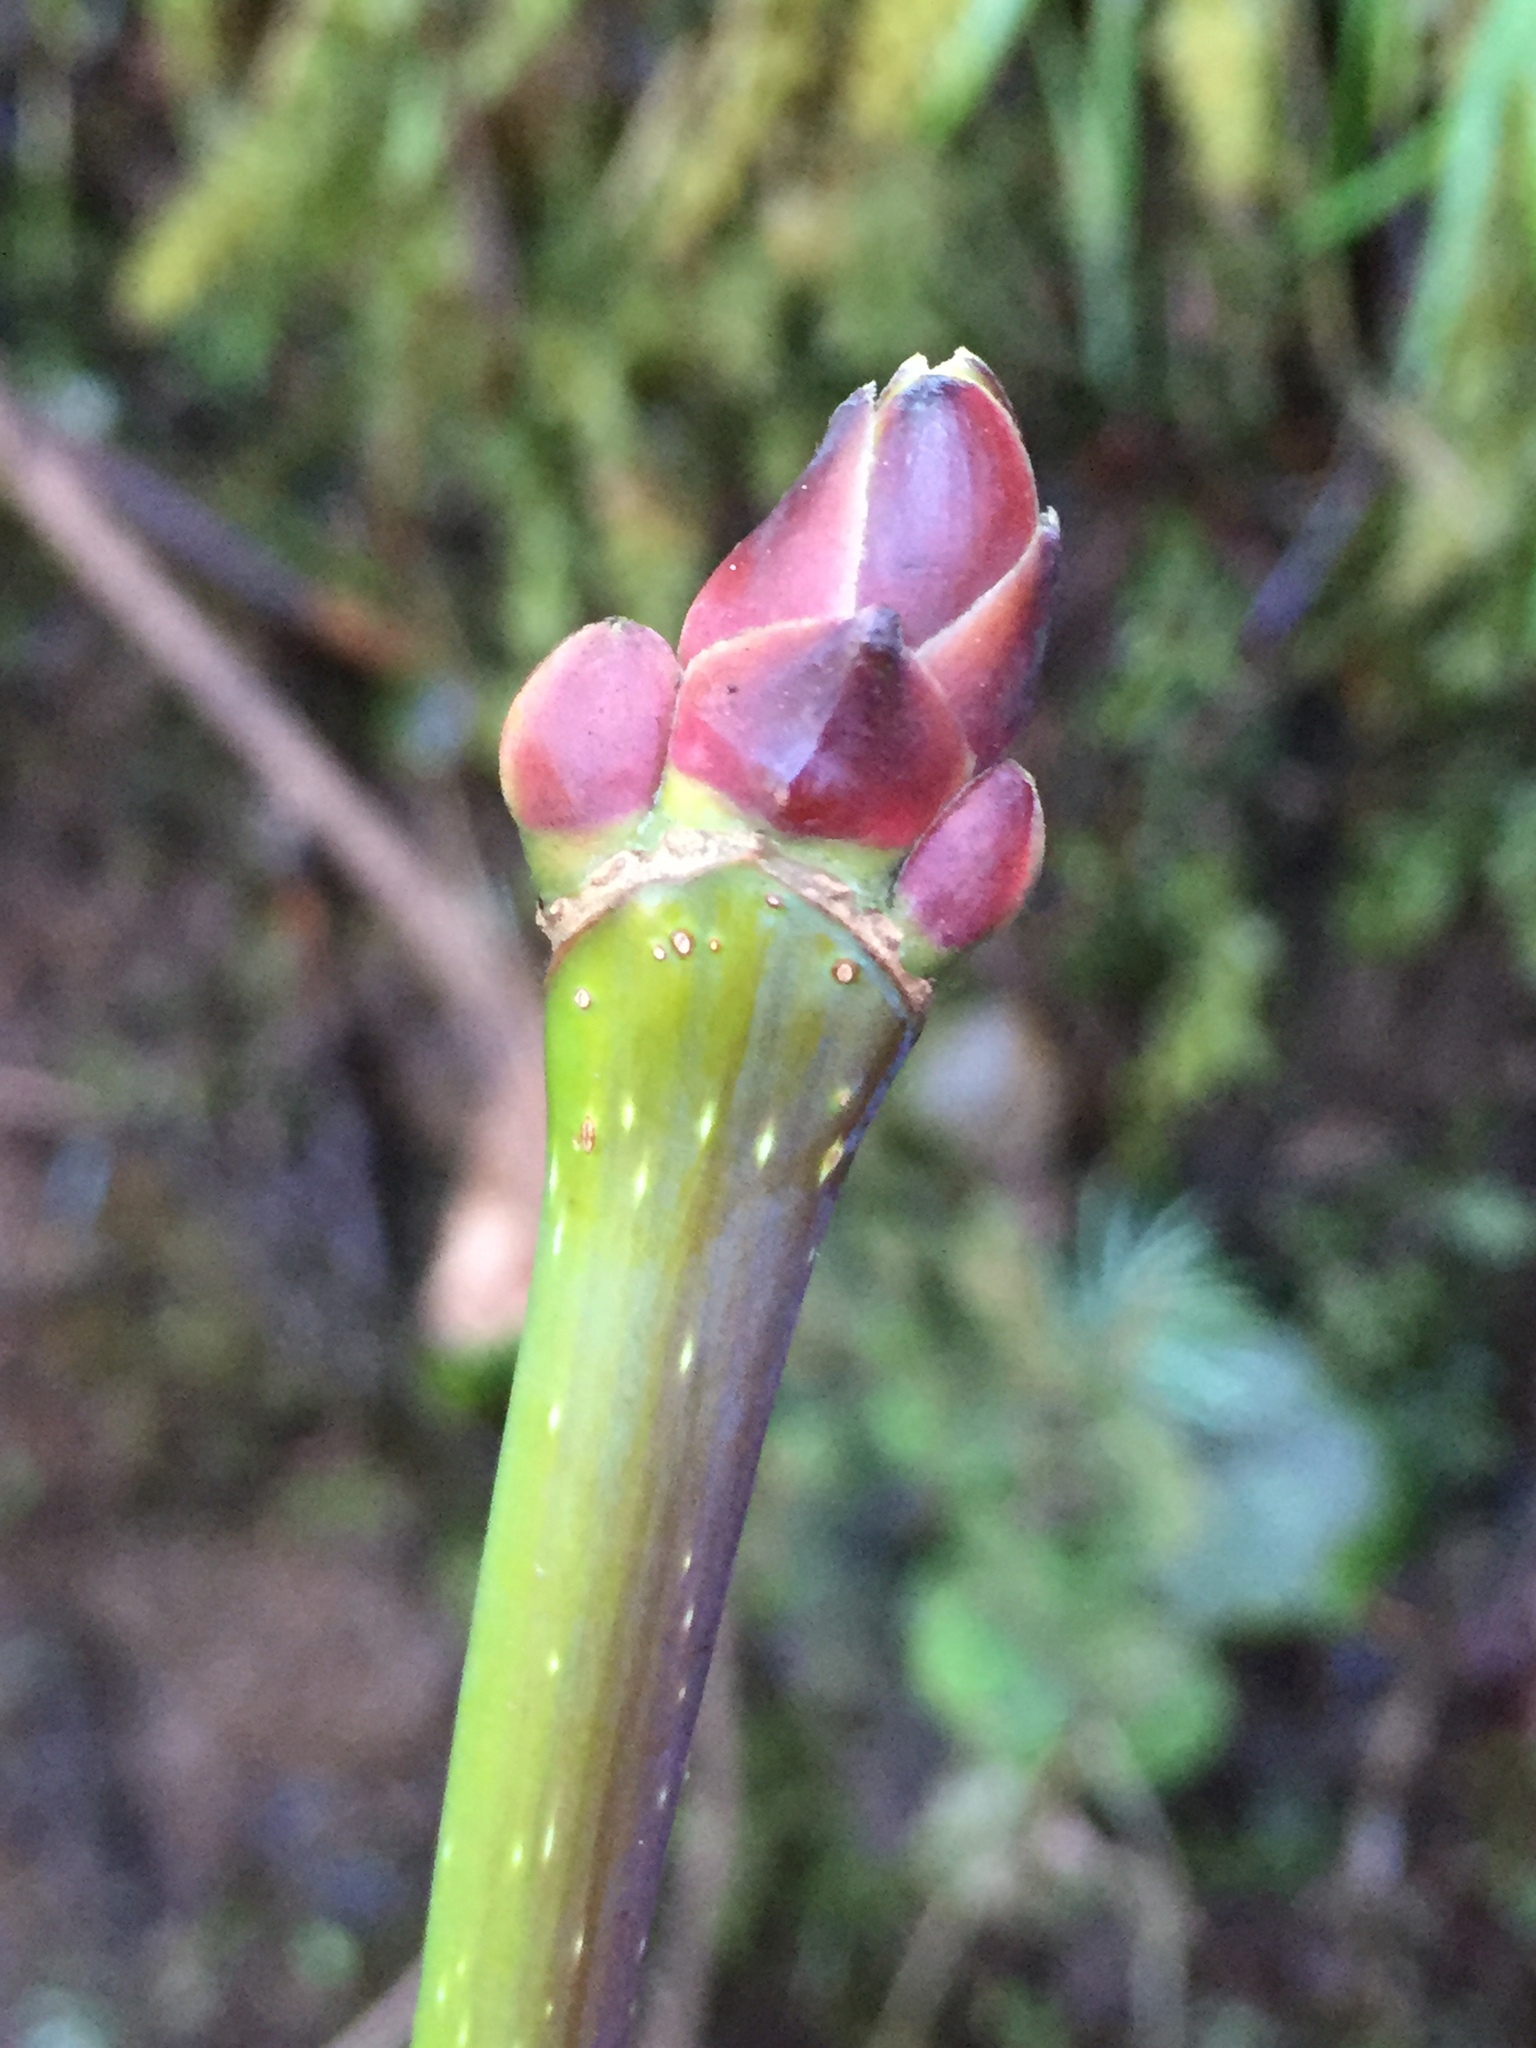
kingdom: Plantae
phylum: Tracheophyta
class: Magnoliopsida
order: Sapindales
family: Sapindaceae
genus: Acer
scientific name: Acer macrophyllum
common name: Oregon maple
